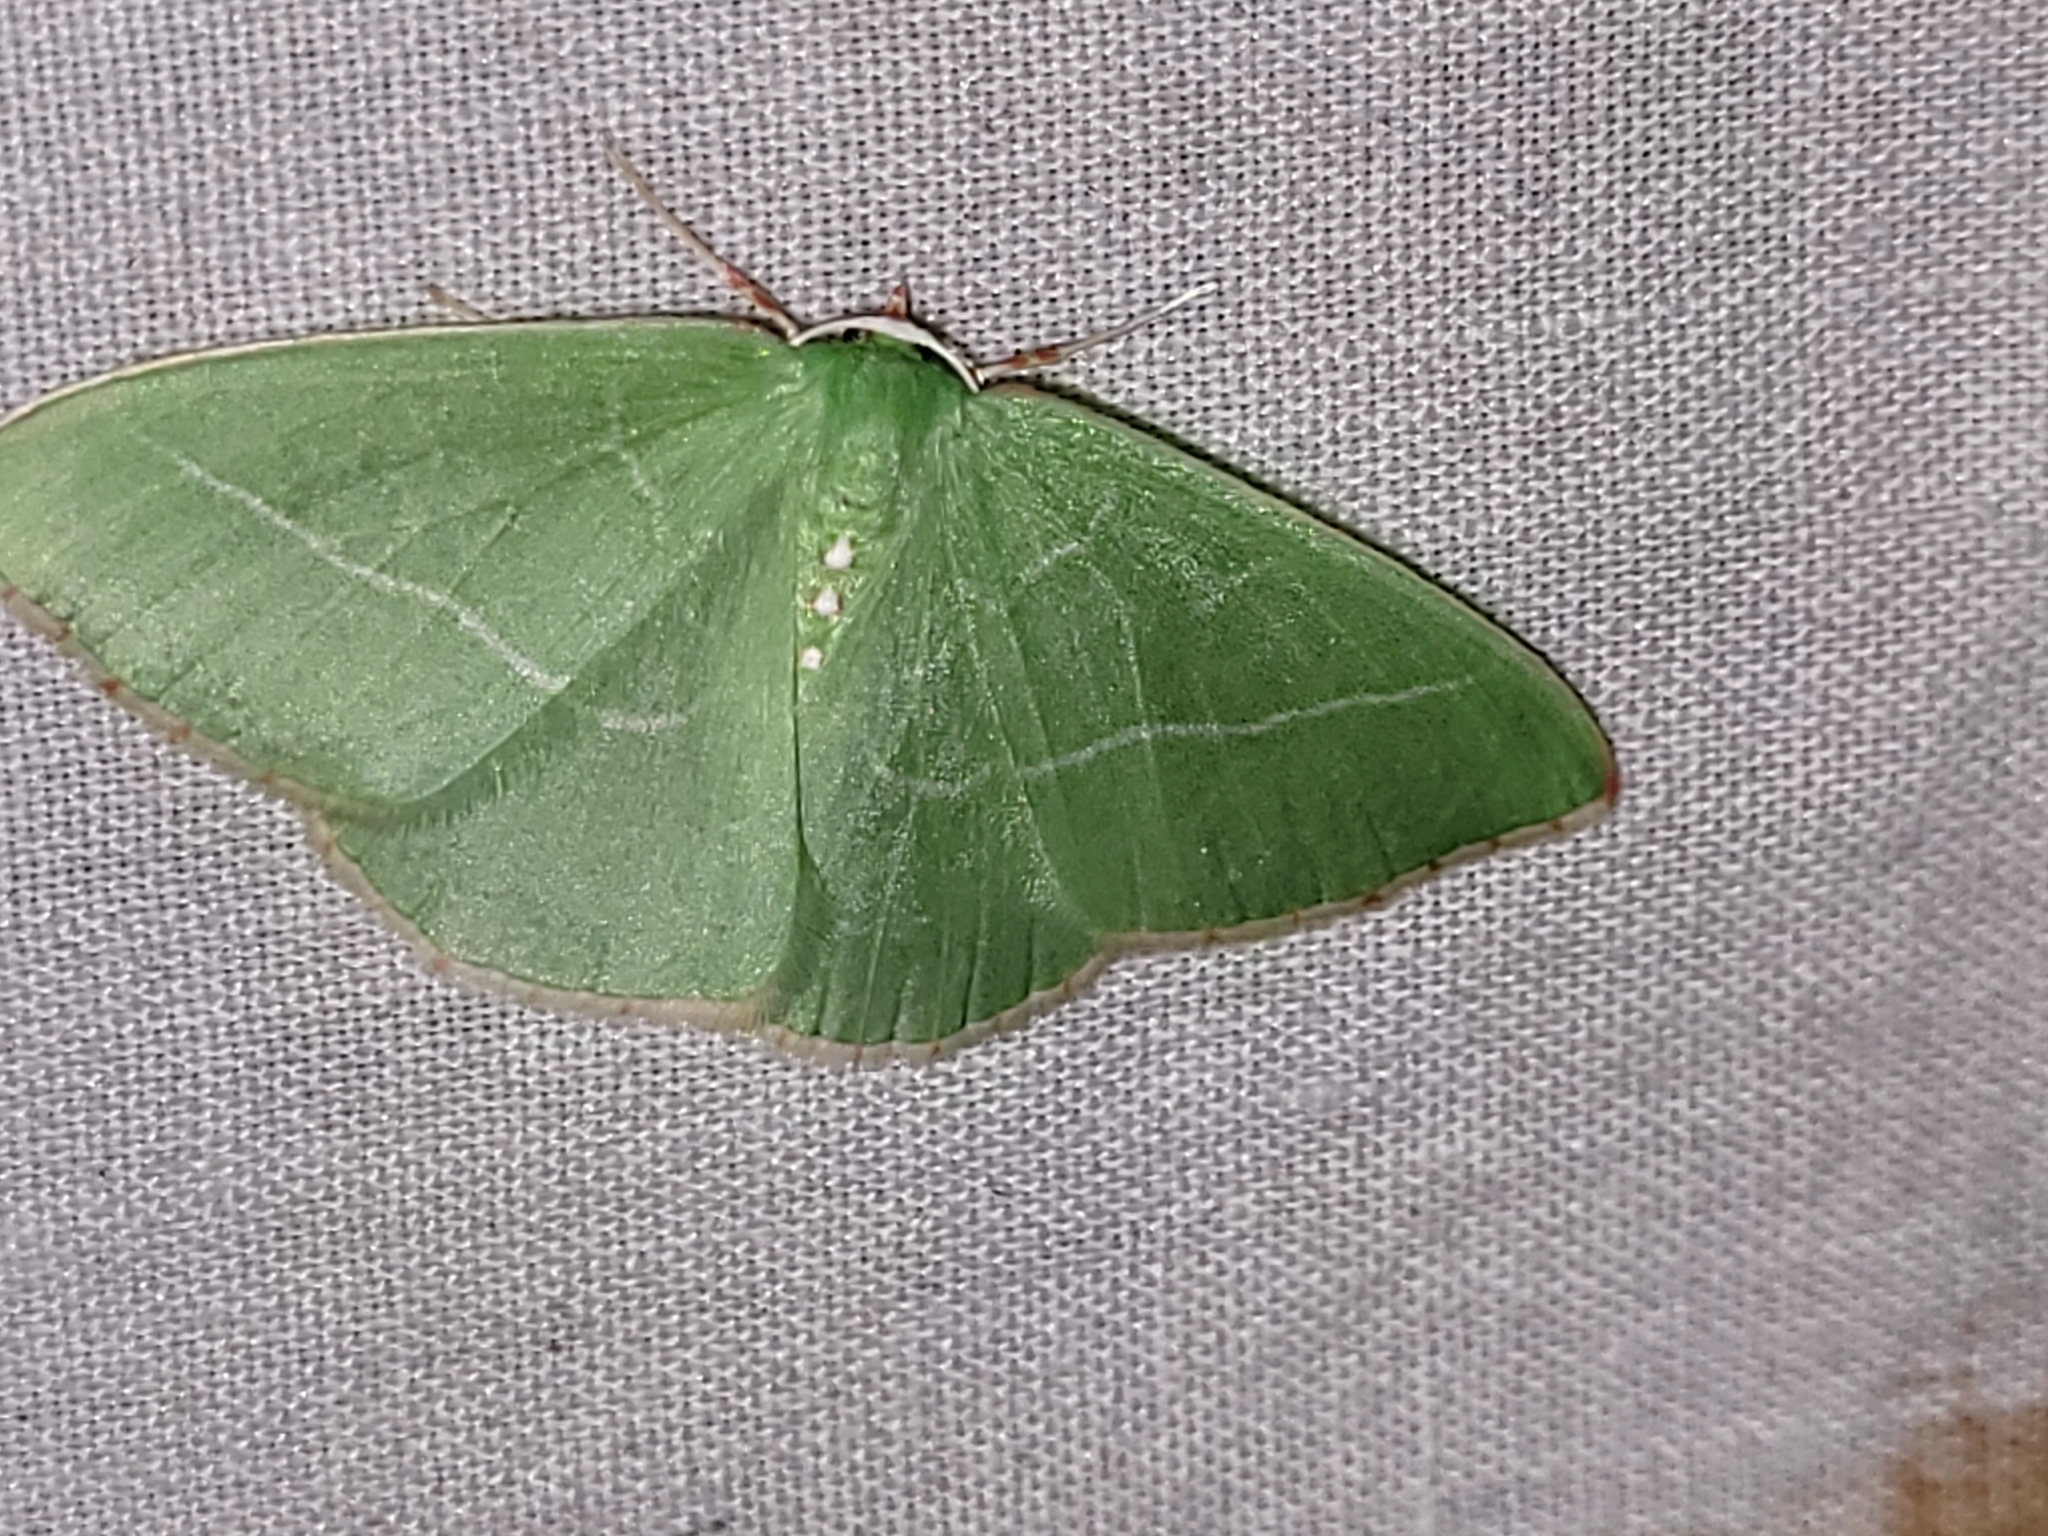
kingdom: Animalia
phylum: Arthropoda
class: Insecta
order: Lepidoptera
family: Geometridae
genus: Nemoria
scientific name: Nemoria unitaria
